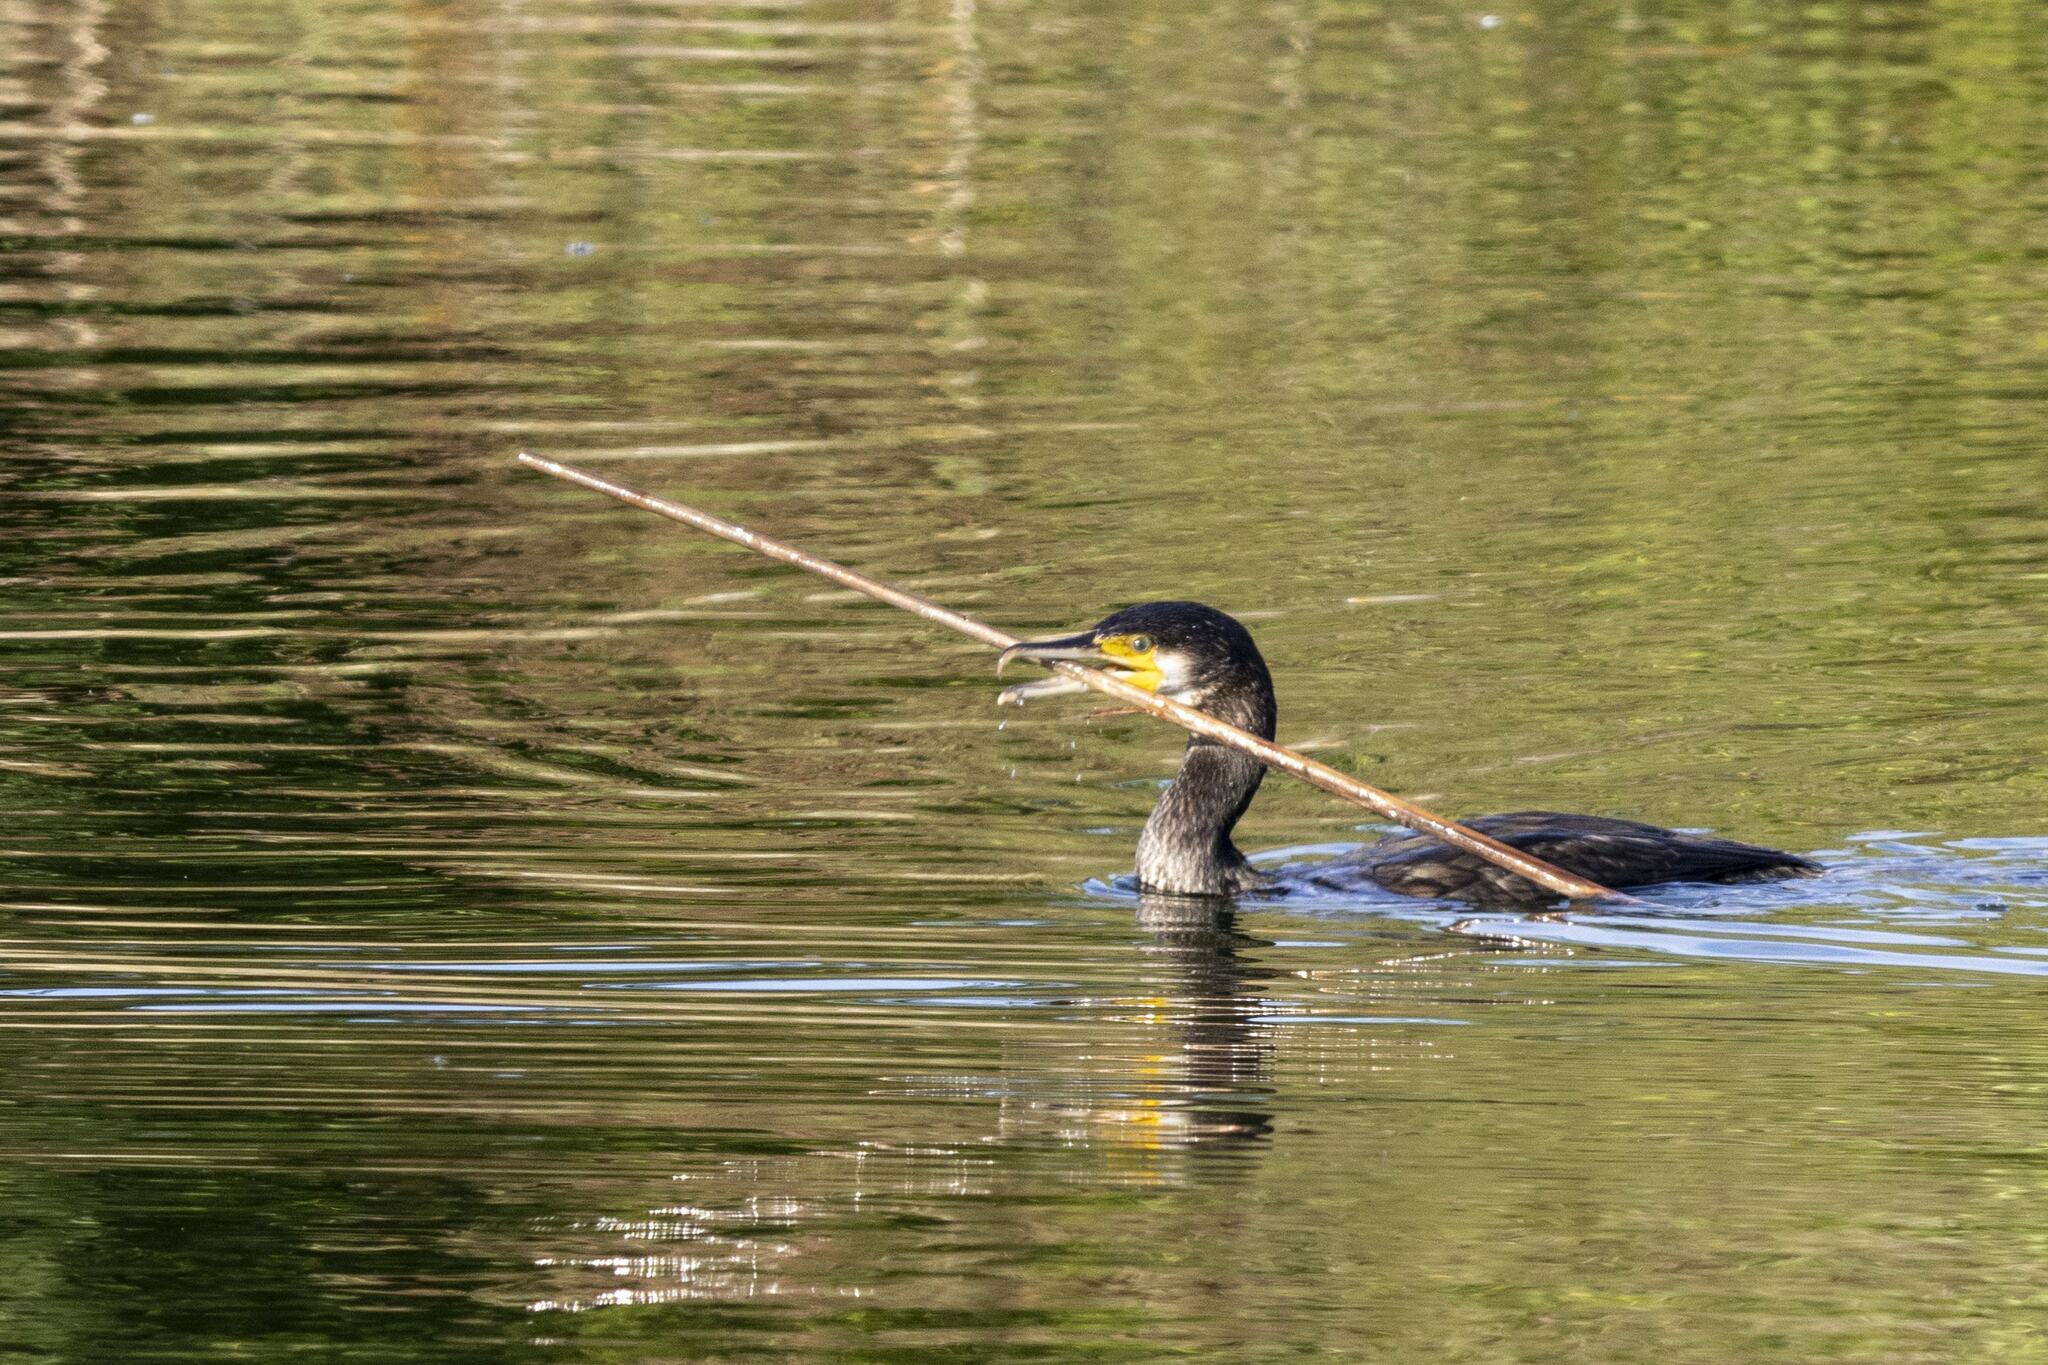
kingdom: Animalia
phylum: Chordata
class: Aves
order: Suliformes
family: Phalacrocoracidae
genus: Phalacrocorax
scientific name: Phalacrocorax carbo
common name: Great cormorant
